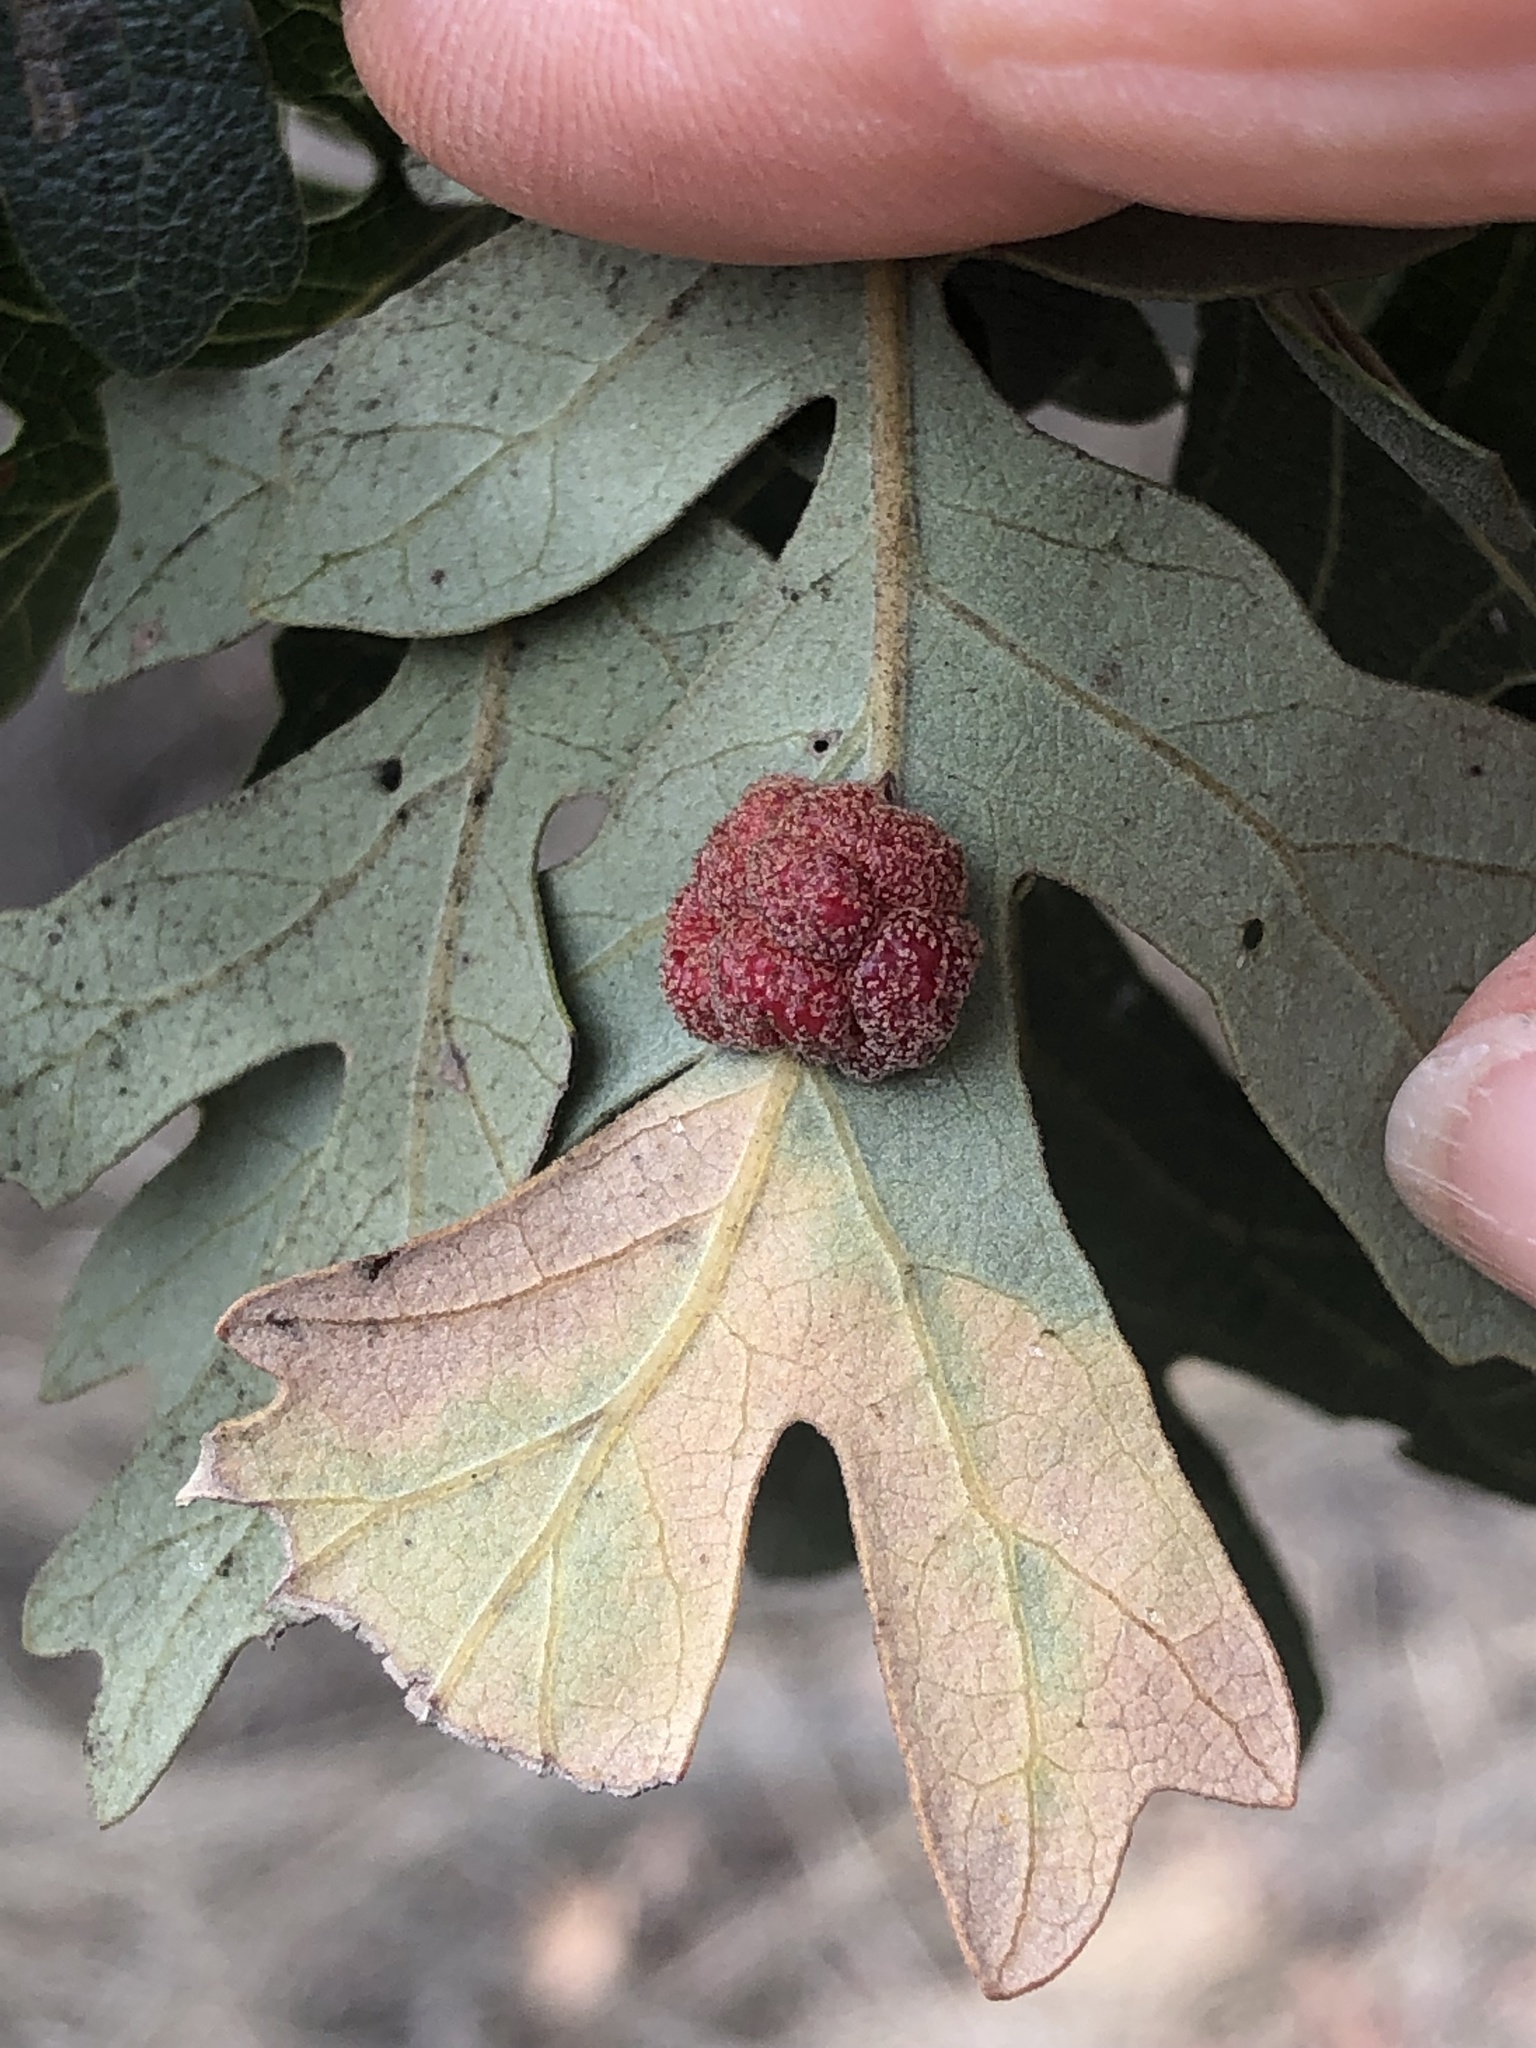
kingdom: Animalia
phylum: Arthropoda
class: Insecta
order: Hymenoptera
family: Cynipidae
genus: Andricus
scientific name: Andricus
